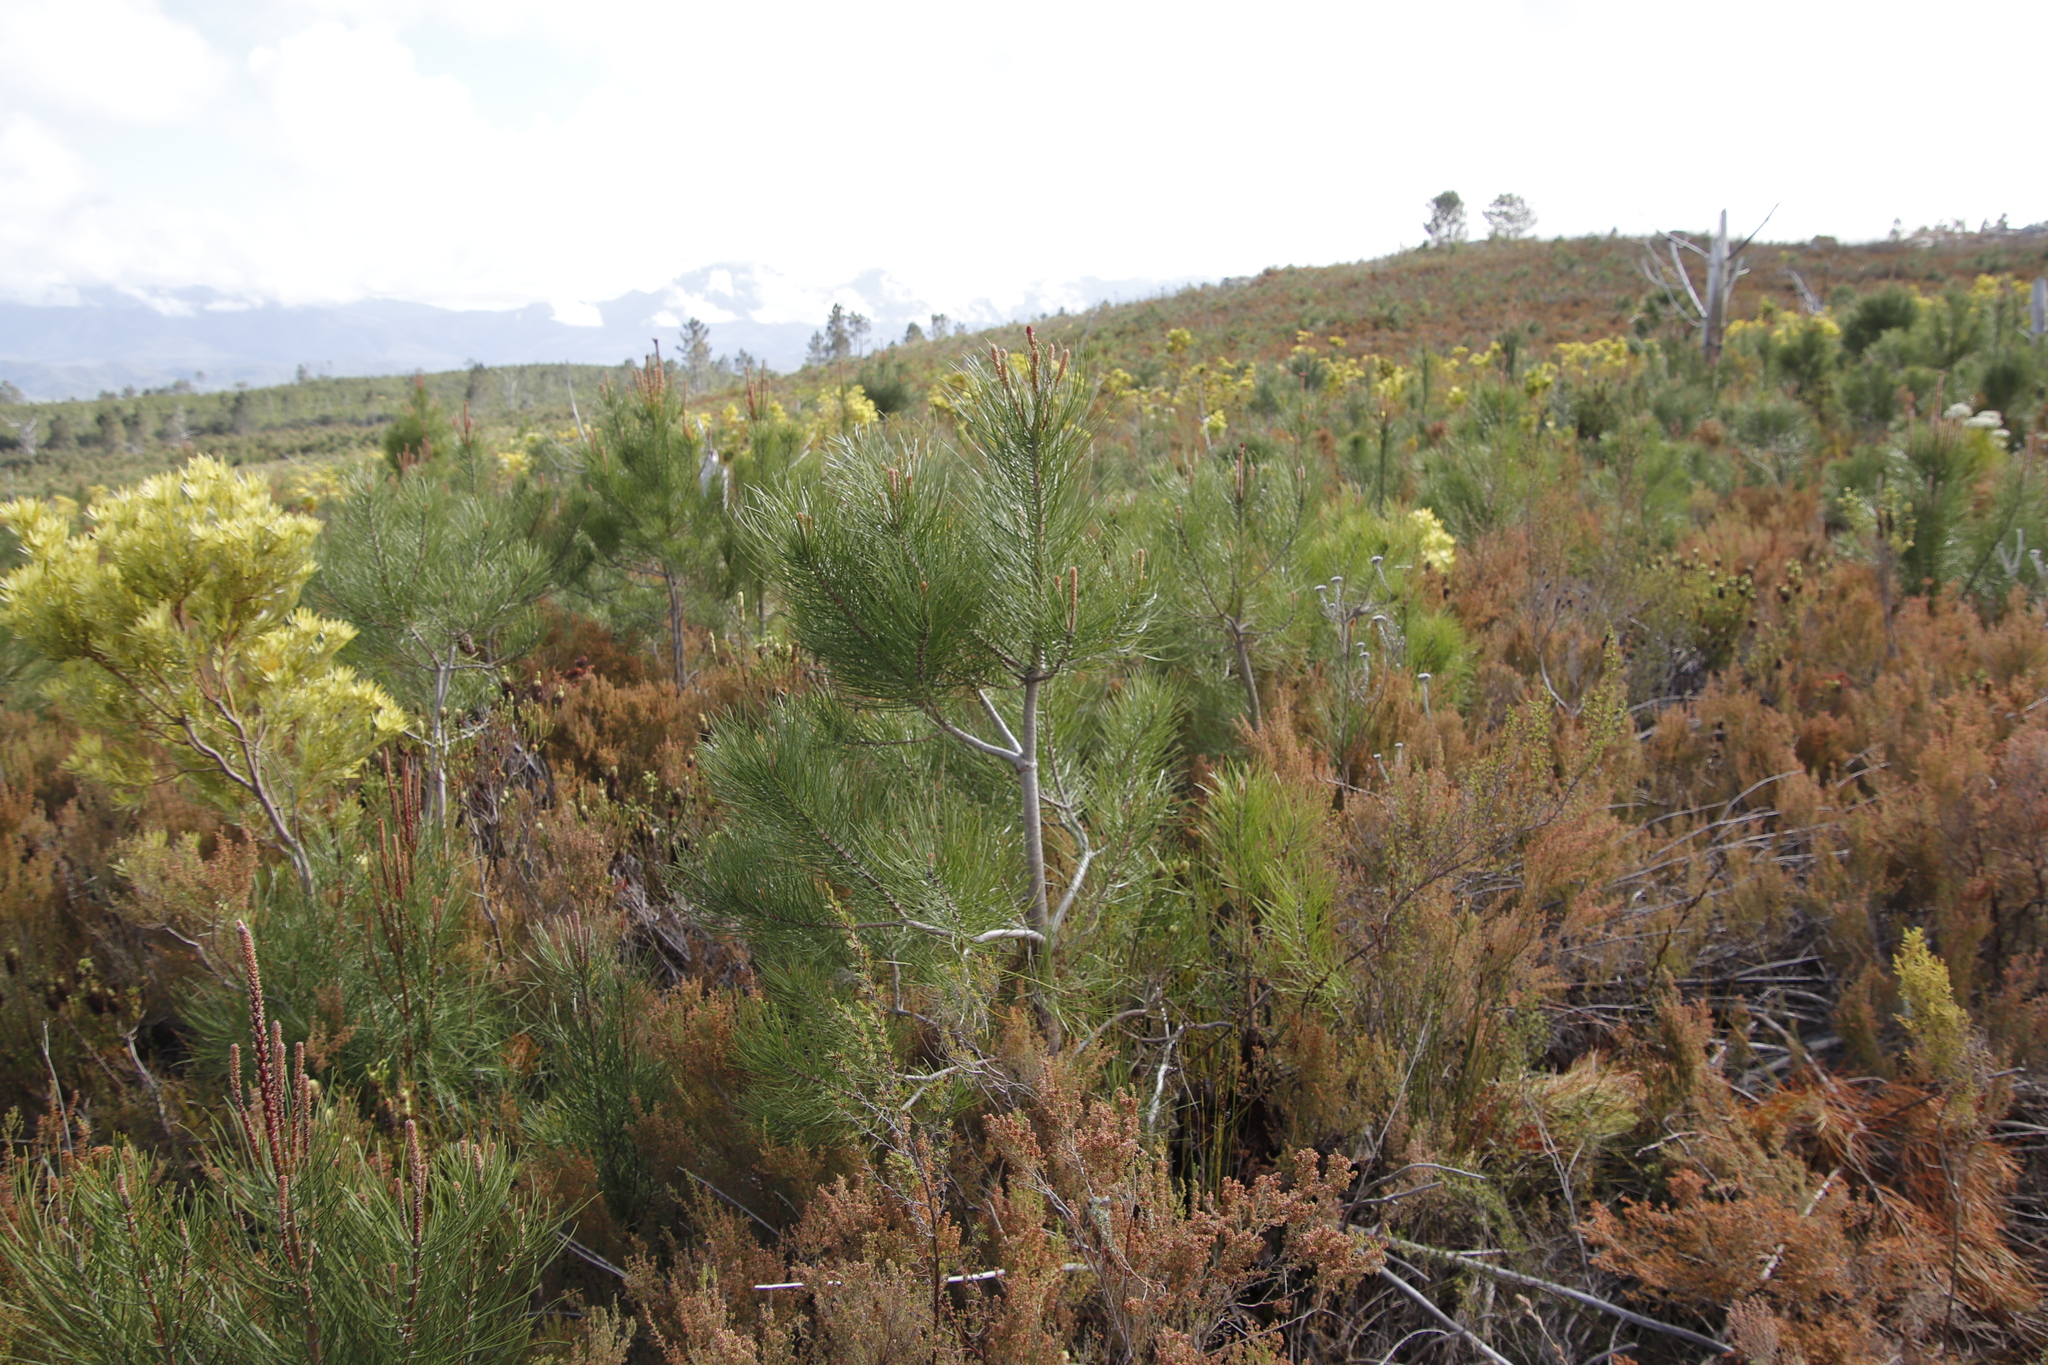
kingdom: Plantae
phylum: Tracheophyta
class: Pinopsida
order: Pinales
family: Pinaceae
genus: Pinus
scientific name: Pinus pinaster
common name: Maritime pine
